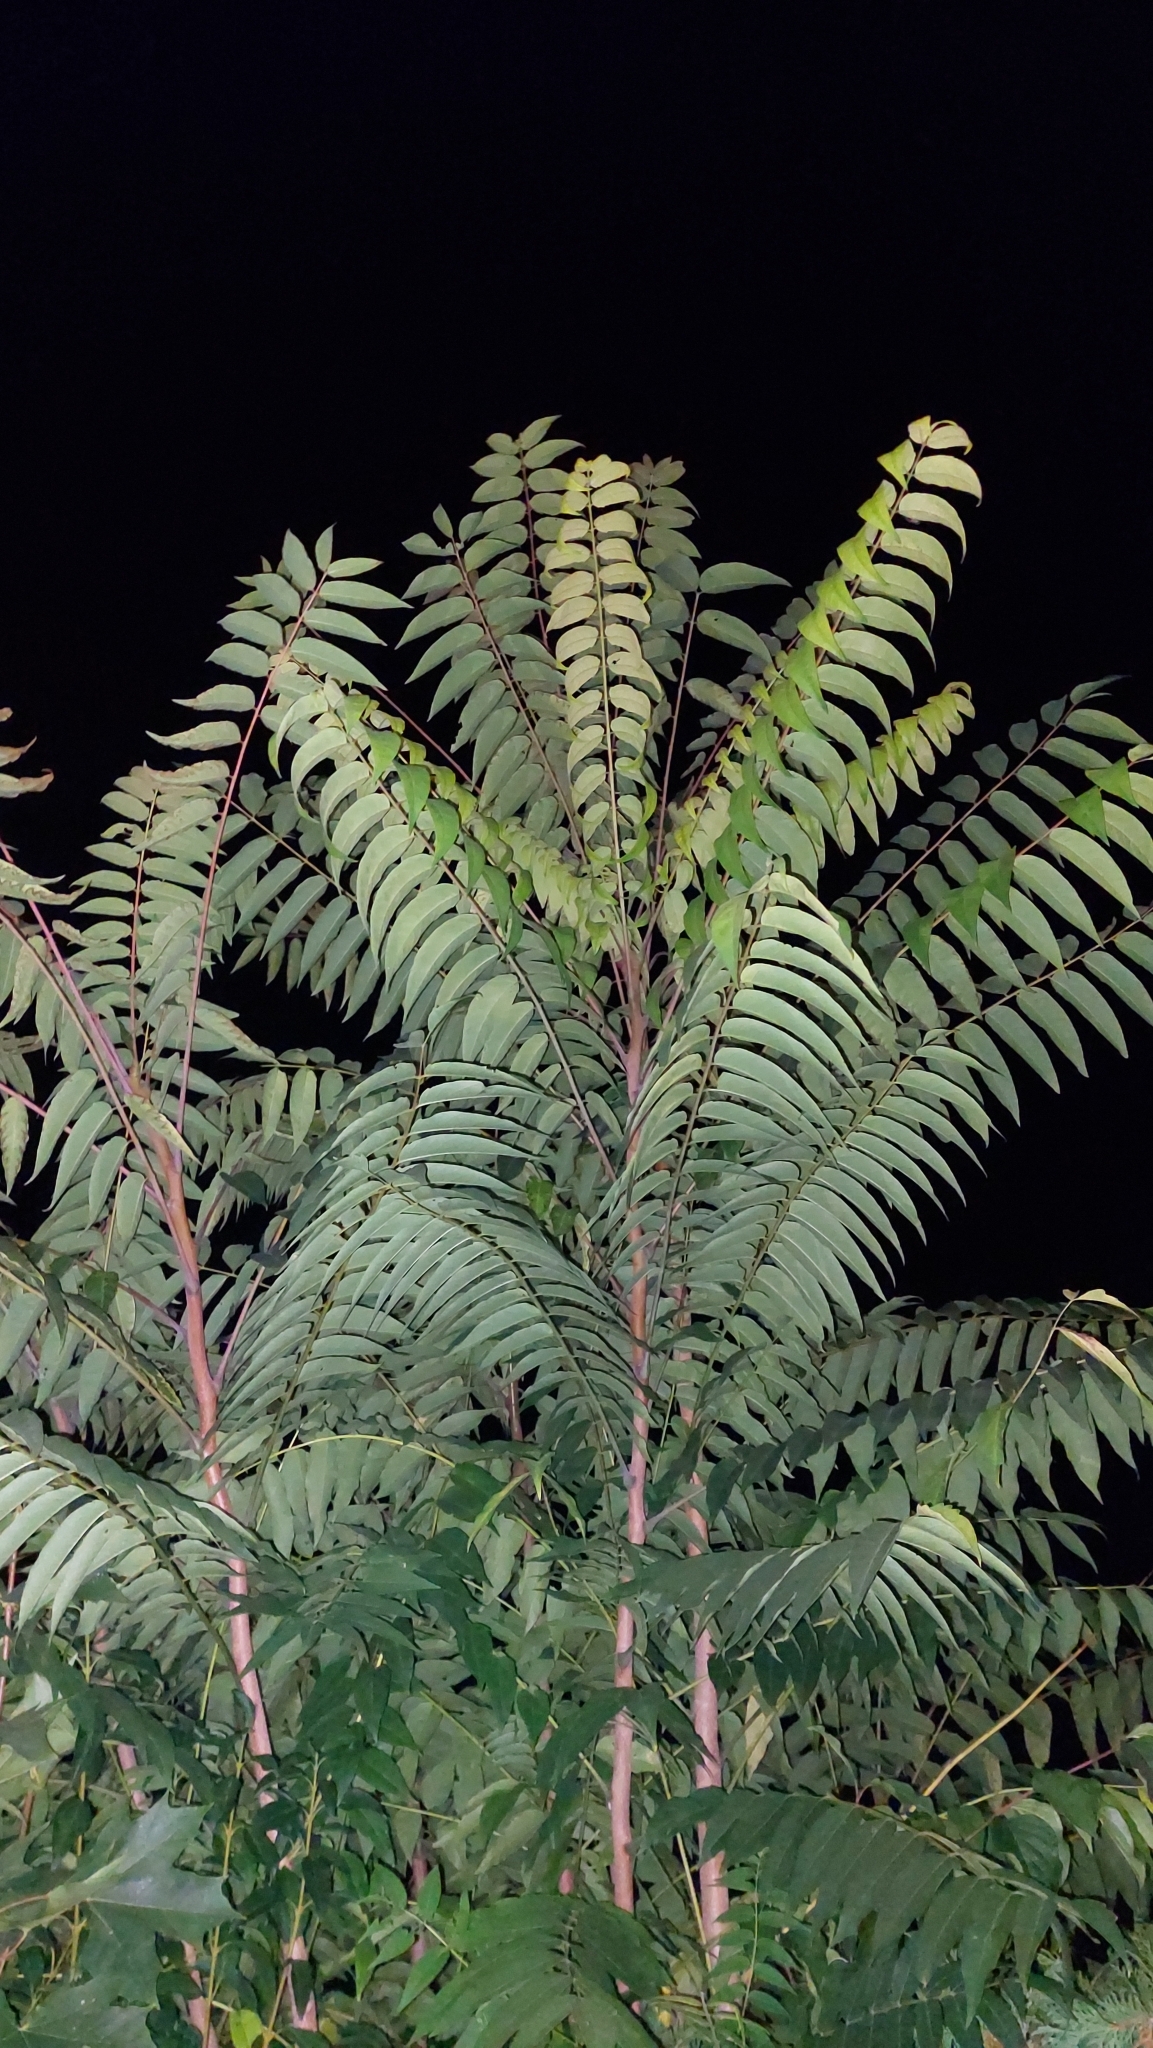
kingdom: Plantae
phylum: Tracheophyta
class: Magnoliopsida
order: Sapindales
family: Simaroubaceae
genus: Ailanthus
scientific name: Ailanthus altissima
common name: Tree-of-heaven
